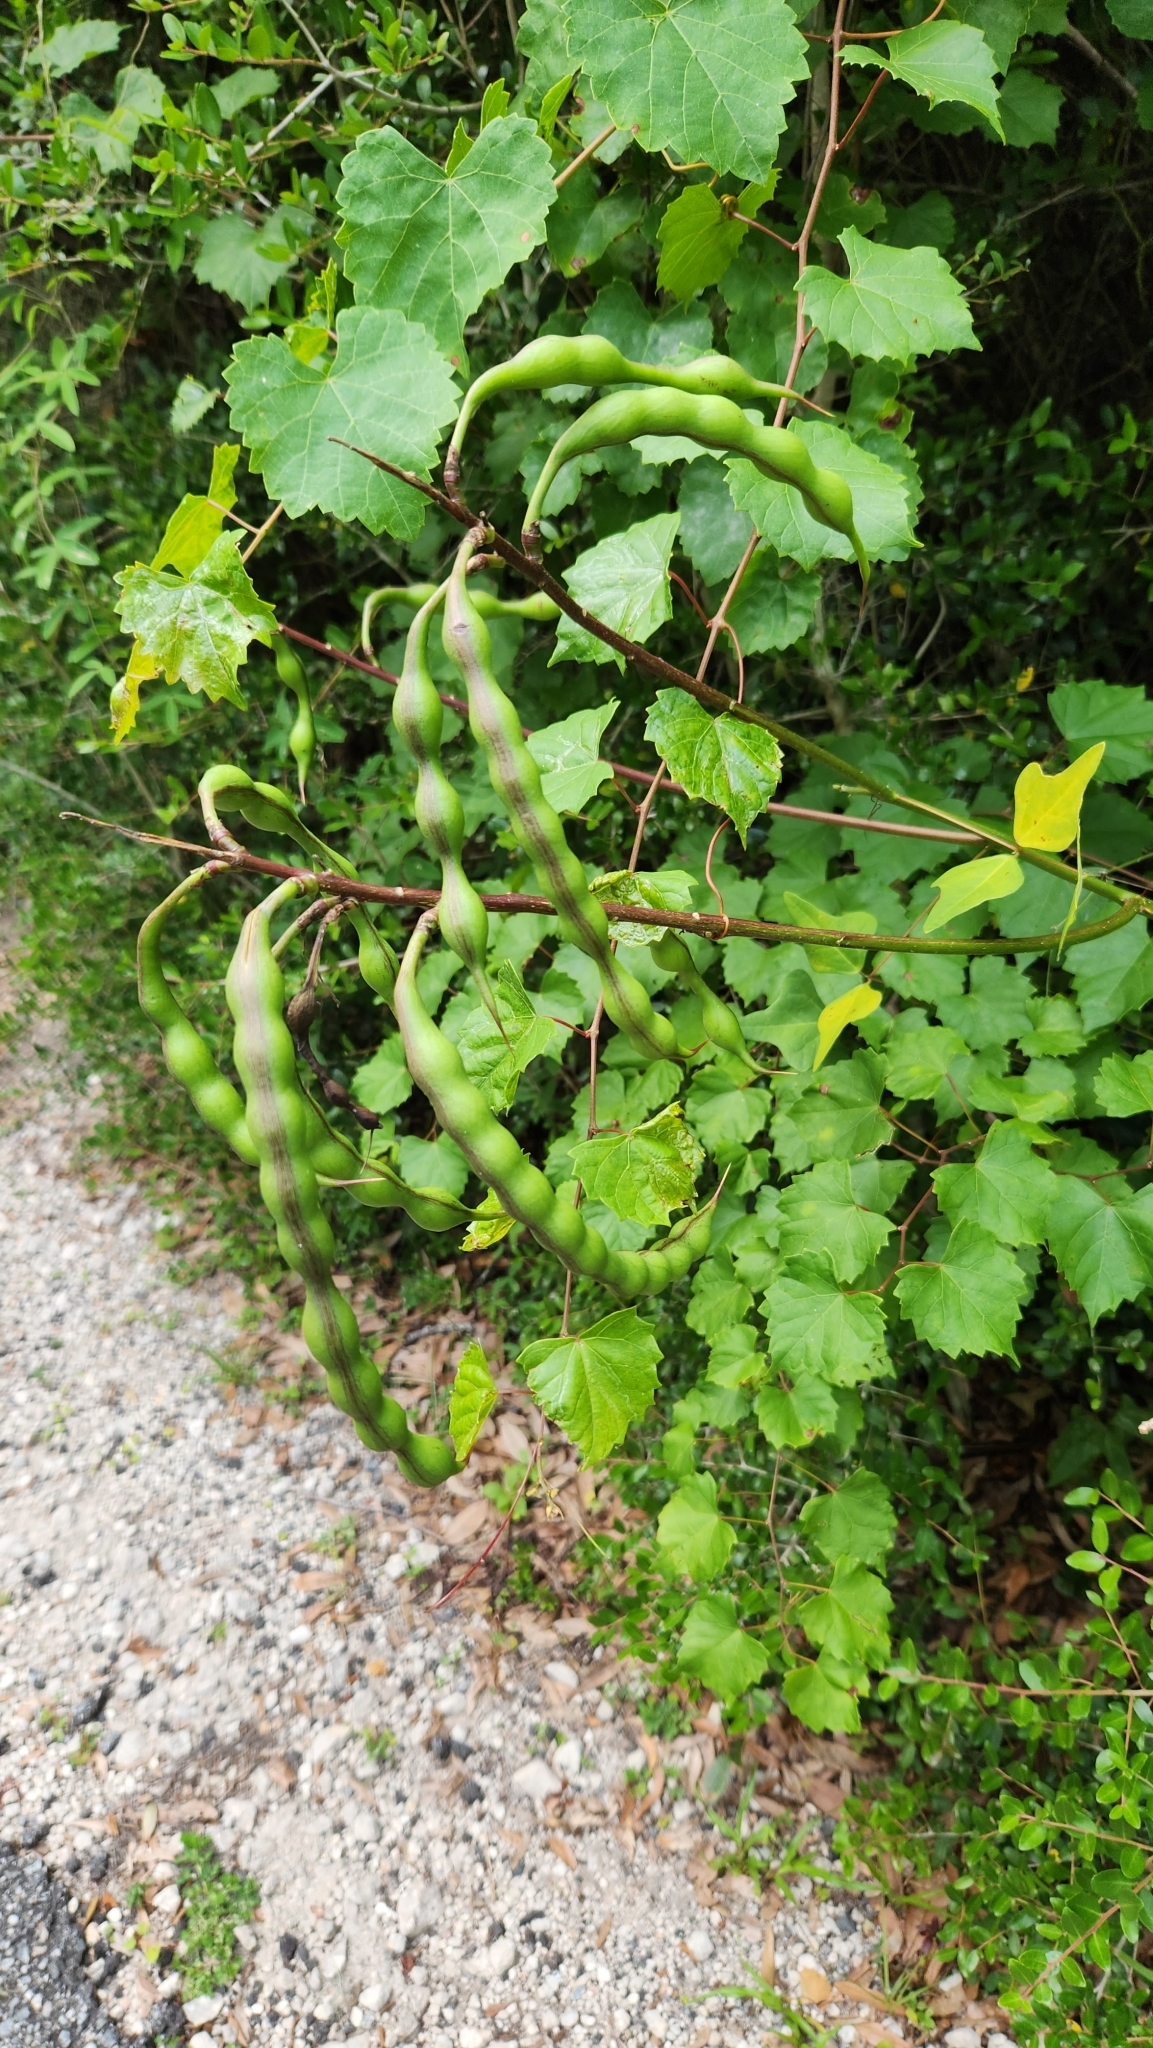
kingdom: Plantae
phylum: Tracheophyta
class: Magnoliopsida
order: Fabales
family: Fabaceae
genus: Erythrina
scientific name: Erythrina herbacea
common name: Coral-bean
